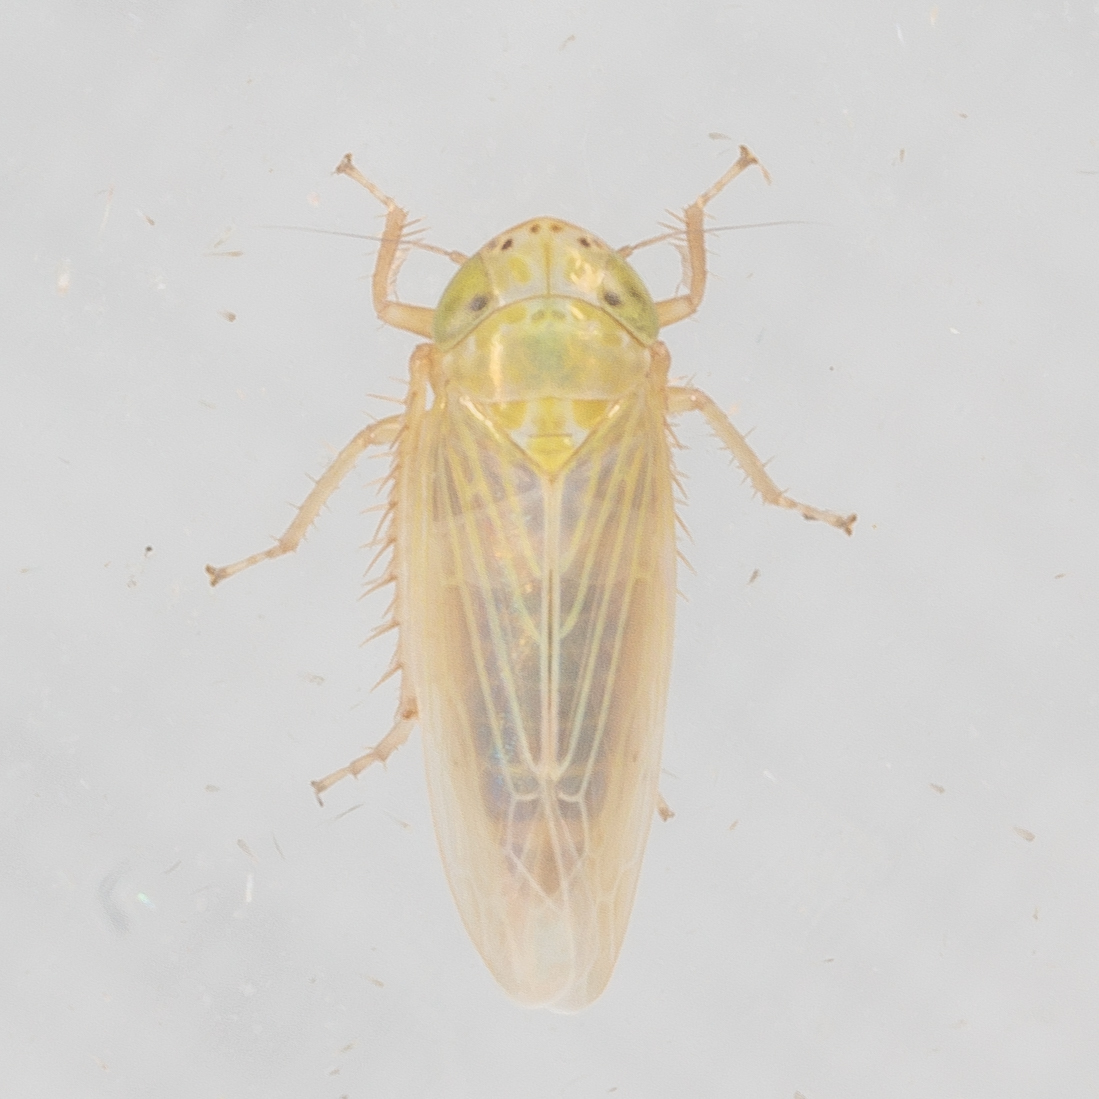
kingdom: Animalia
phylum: Arthropoda
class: Insecta
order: Hemiptera
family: Cicadellidae
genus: Graminella
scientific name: Graminella nigrifrons
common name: Blackfaced leafhopper
